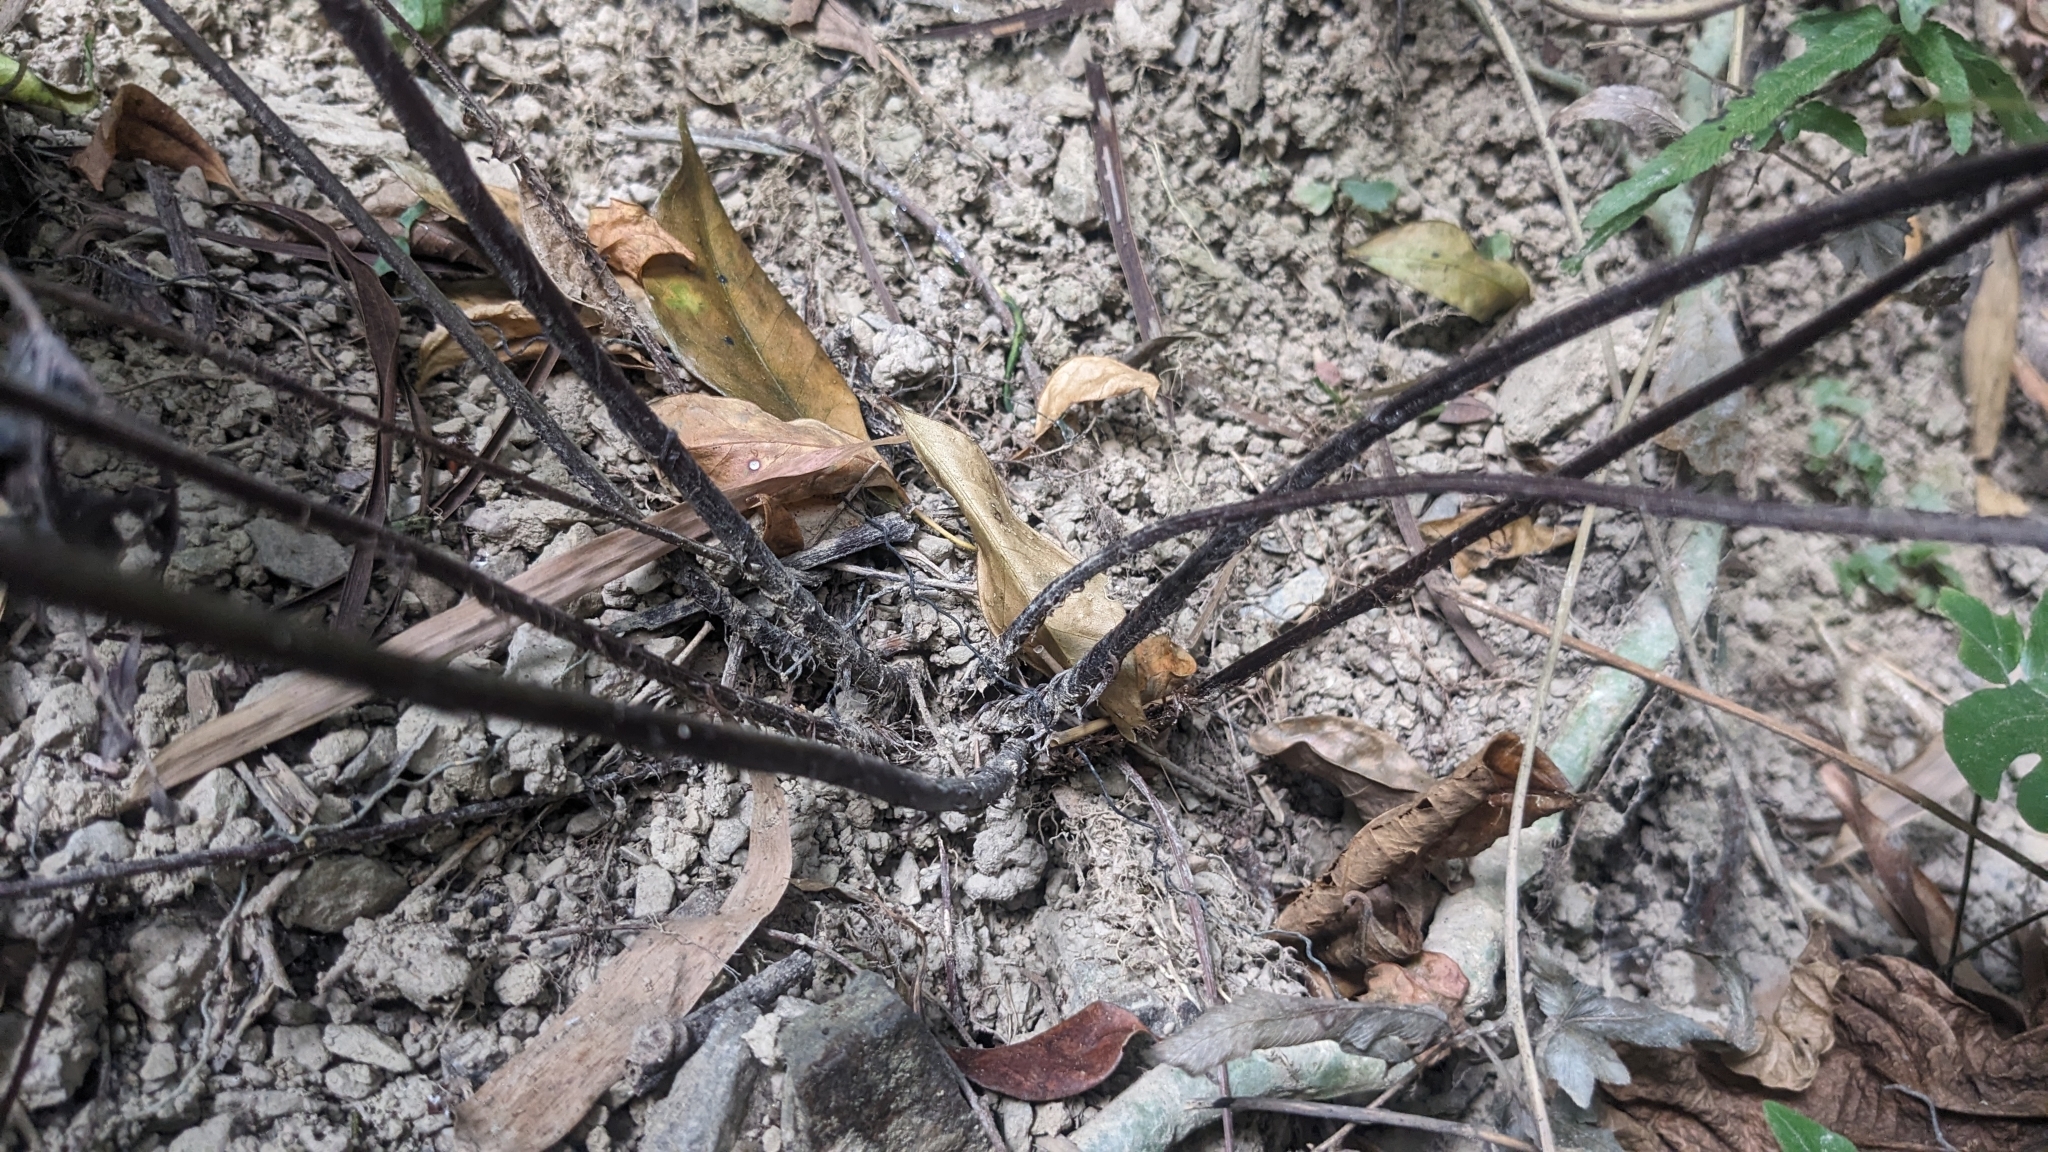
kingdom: Plantae
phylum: Tracheophyta
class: Polypodiopsida
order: Polypodiales
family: Tectariaceae
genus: Tectaria
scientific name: Tectaria impressa
